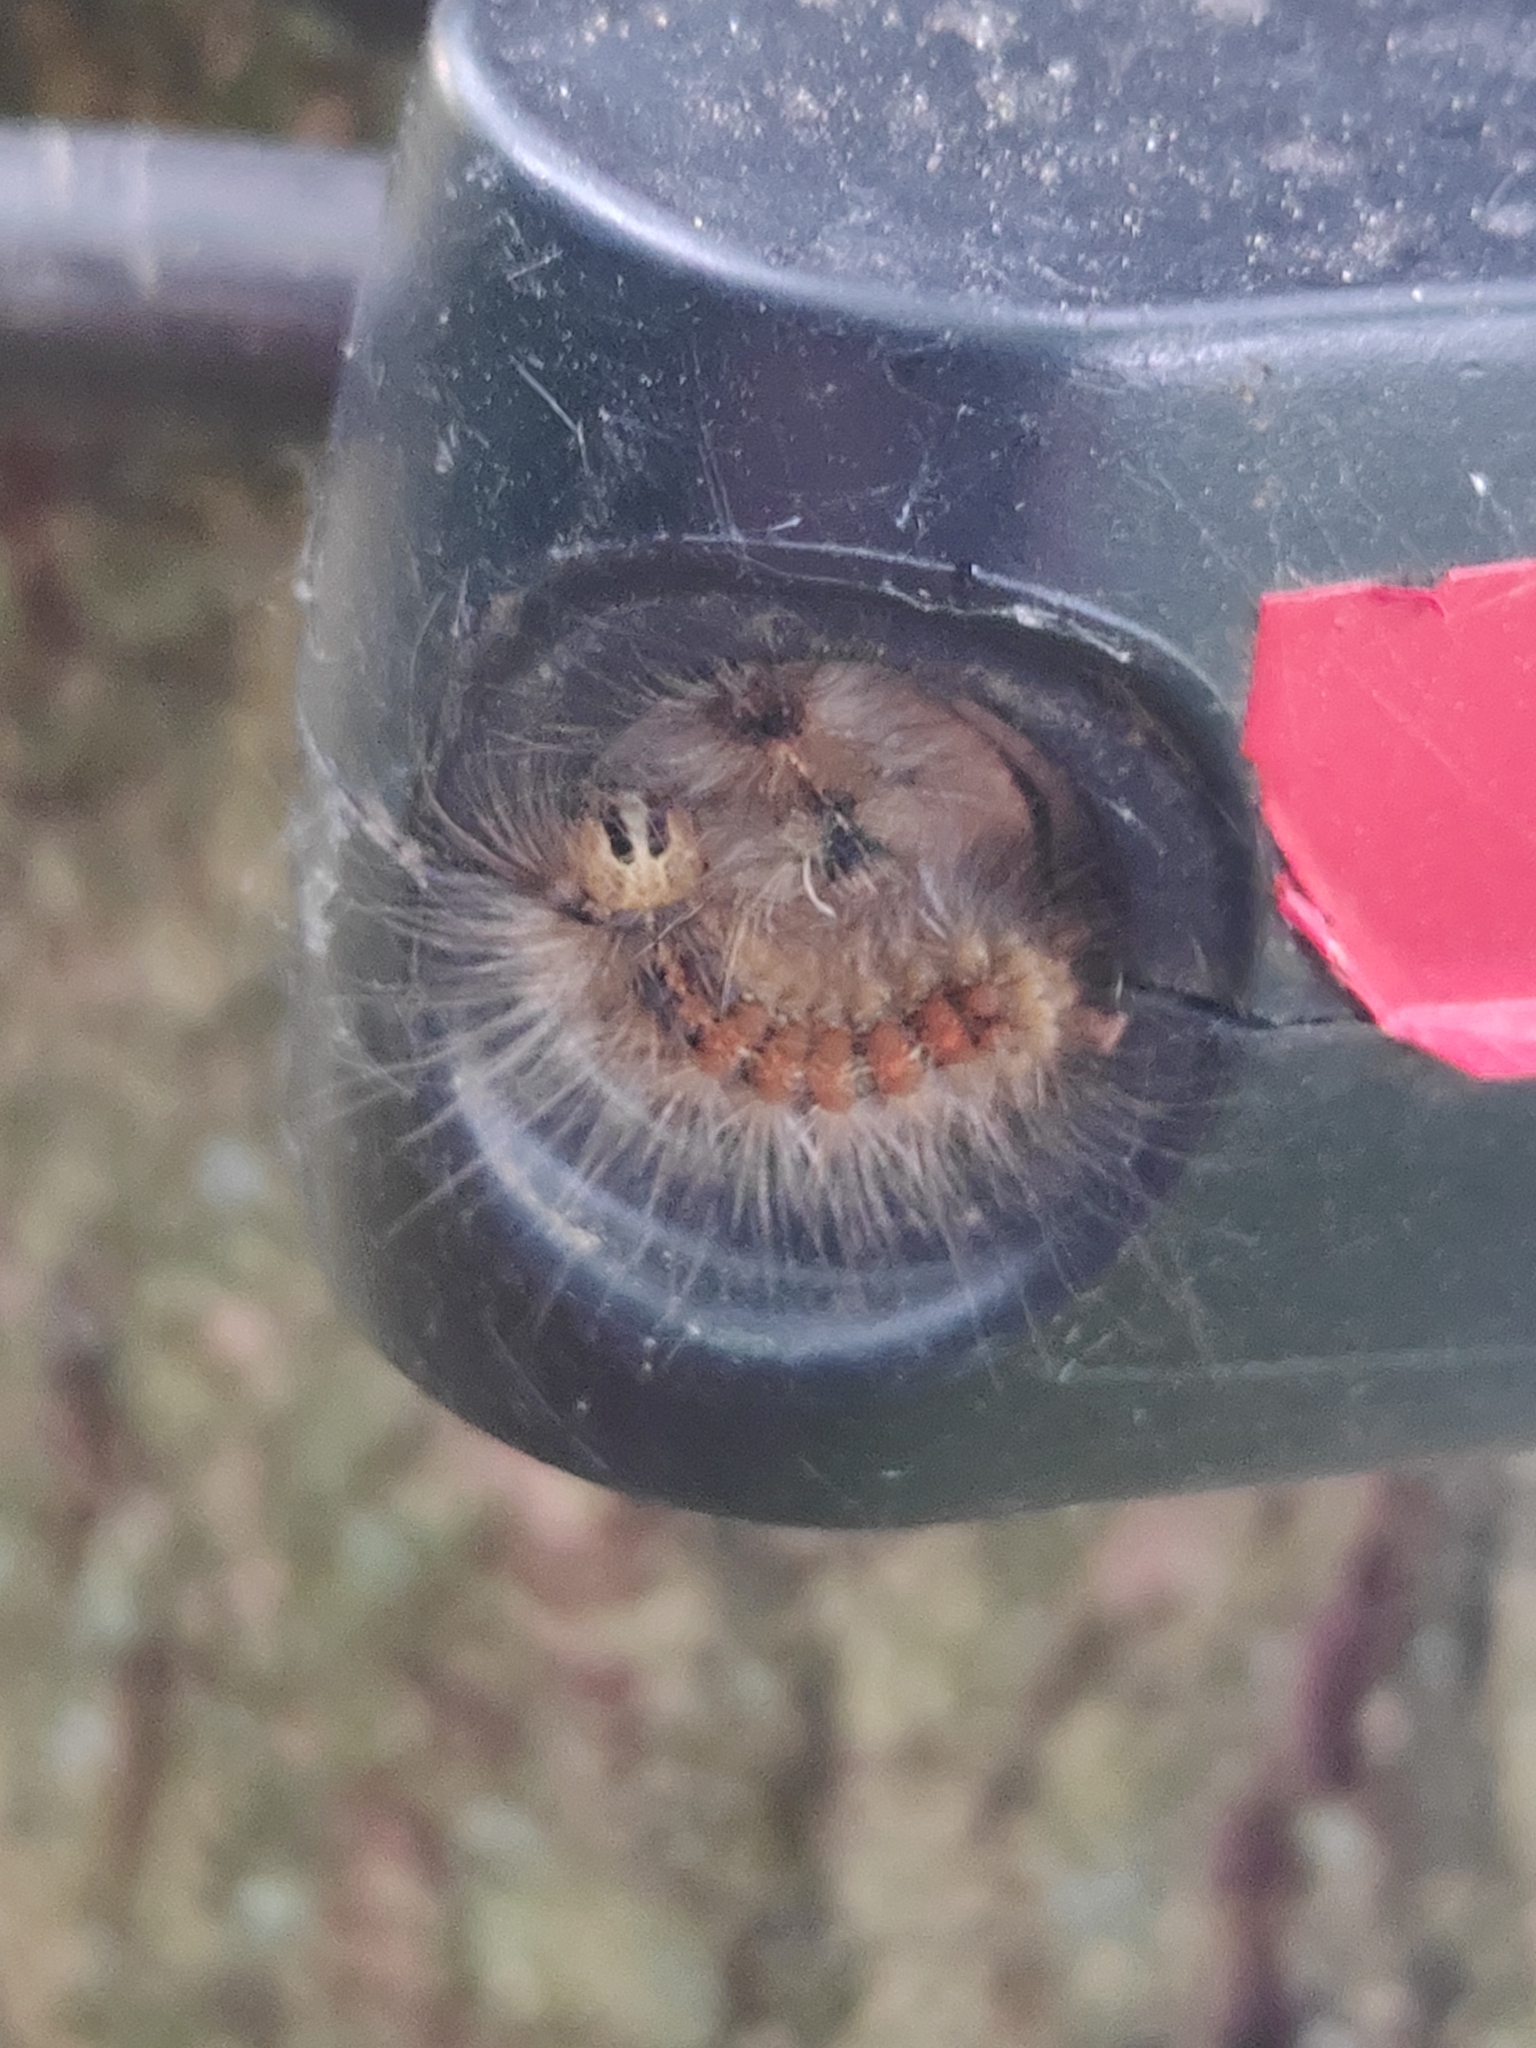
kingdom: Animalia
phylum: Arthropoda
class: Insecta
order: Lepidoptera
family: Erebidae
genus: Lymantria
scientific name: Lymantria dispar
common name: Gypsy moth
